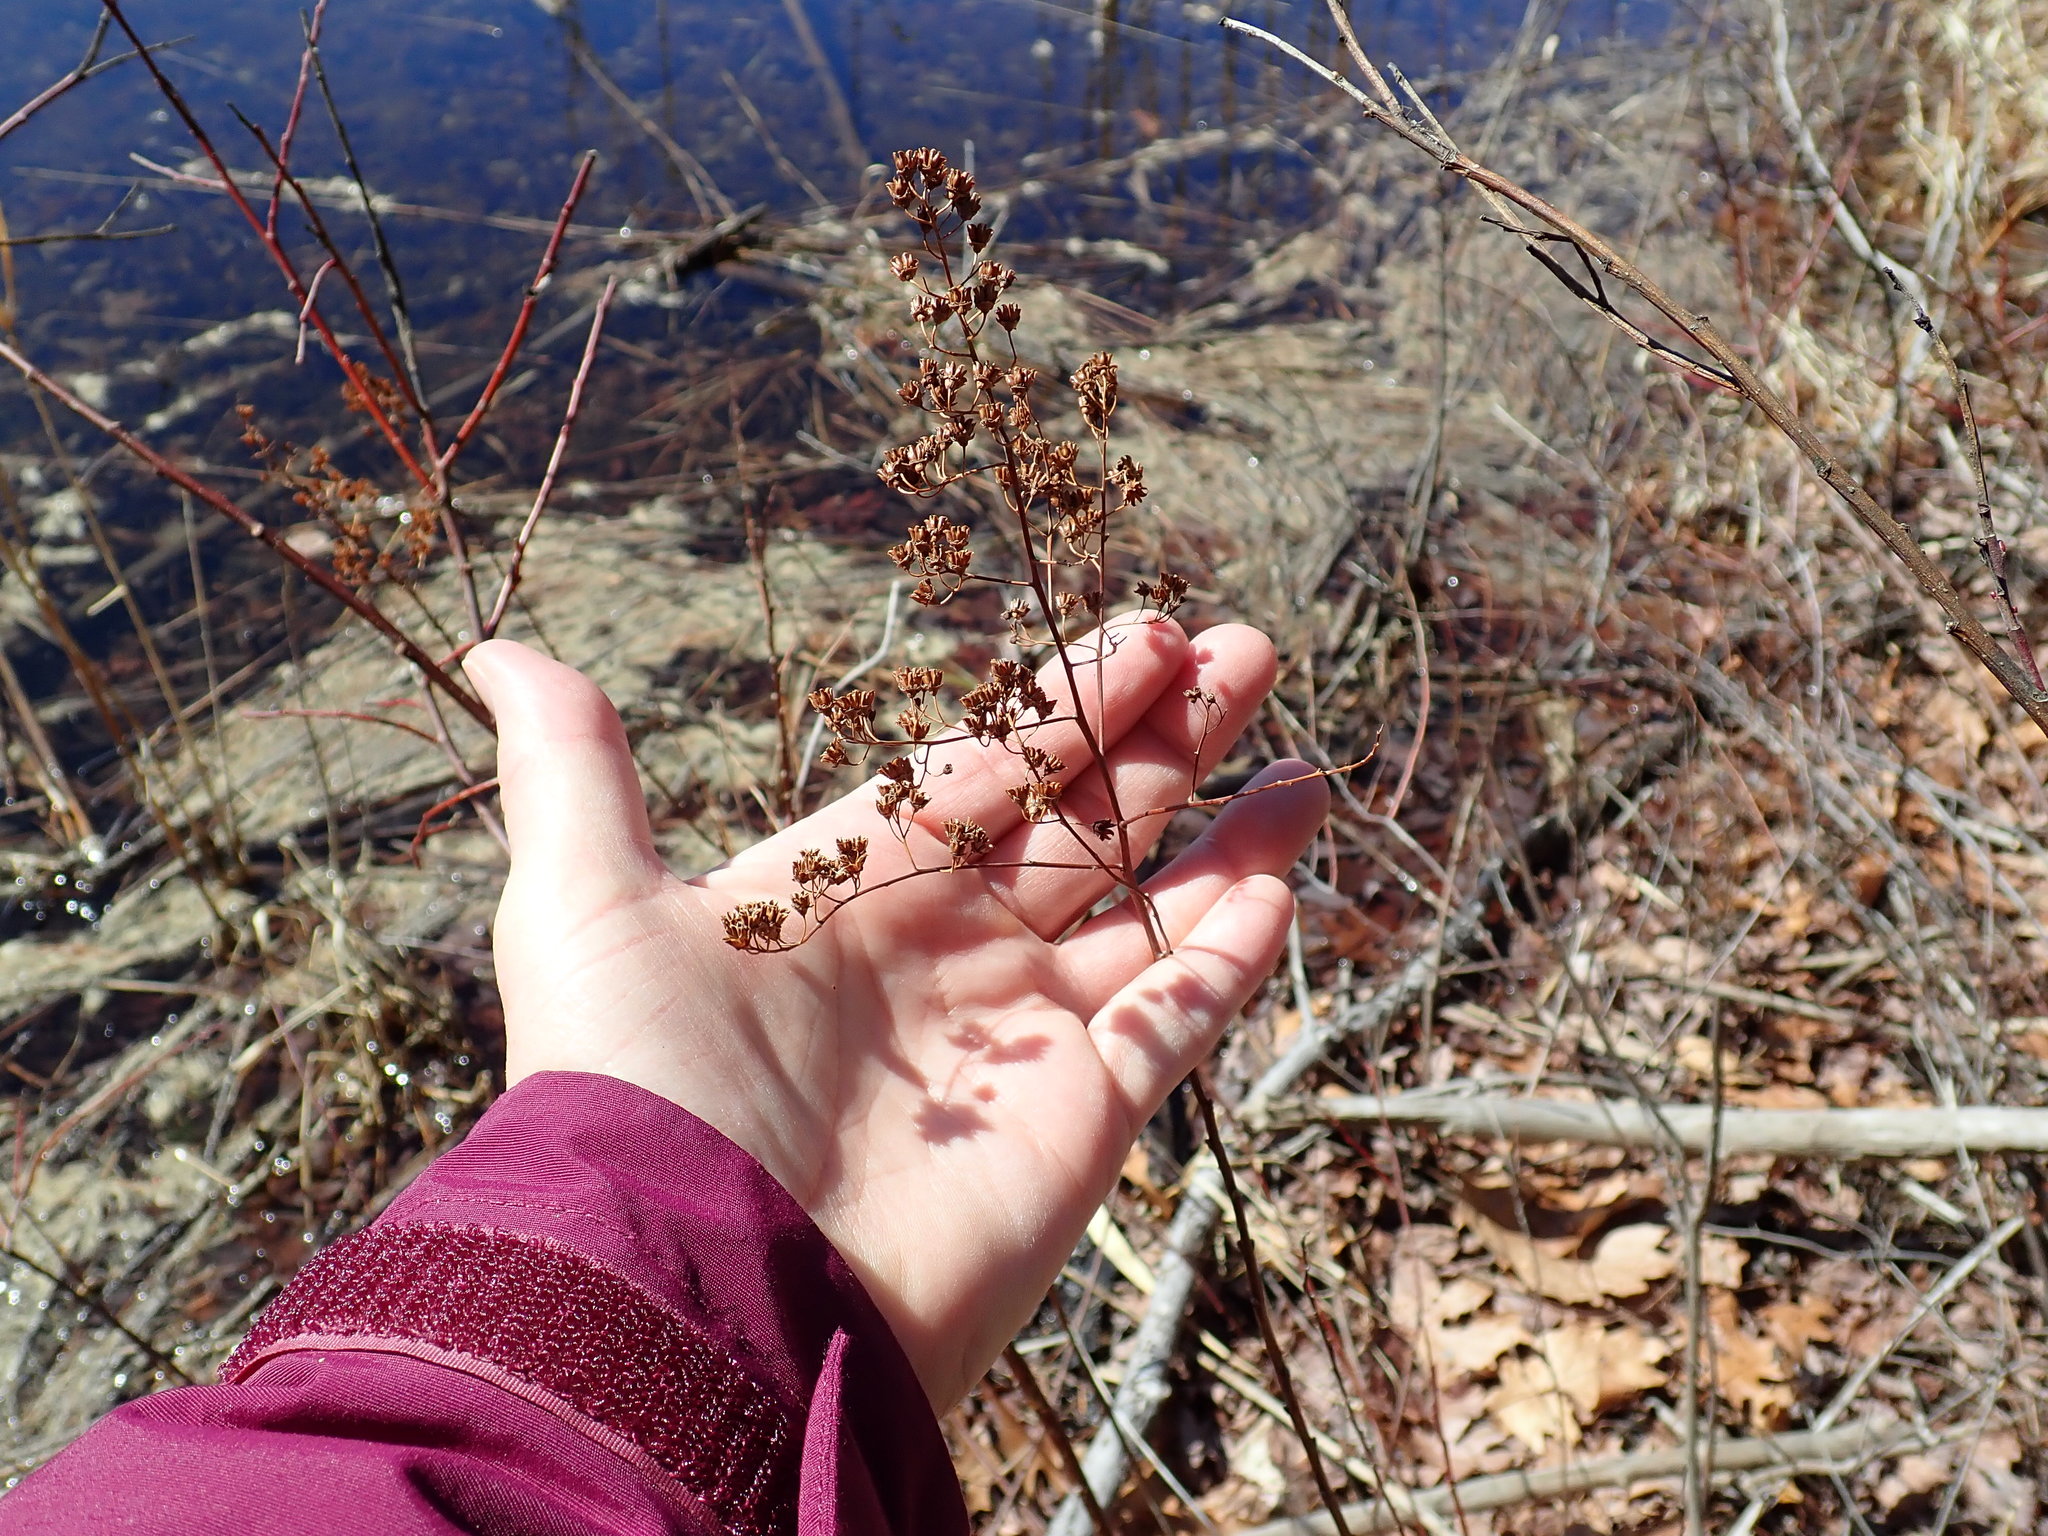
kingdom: Plantae
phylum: Tracheophyta
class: Magnoliopsida
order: Rosales
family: Rosaceae
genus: Spiraea
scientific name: Spiraea alba
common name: Pale bridewort
